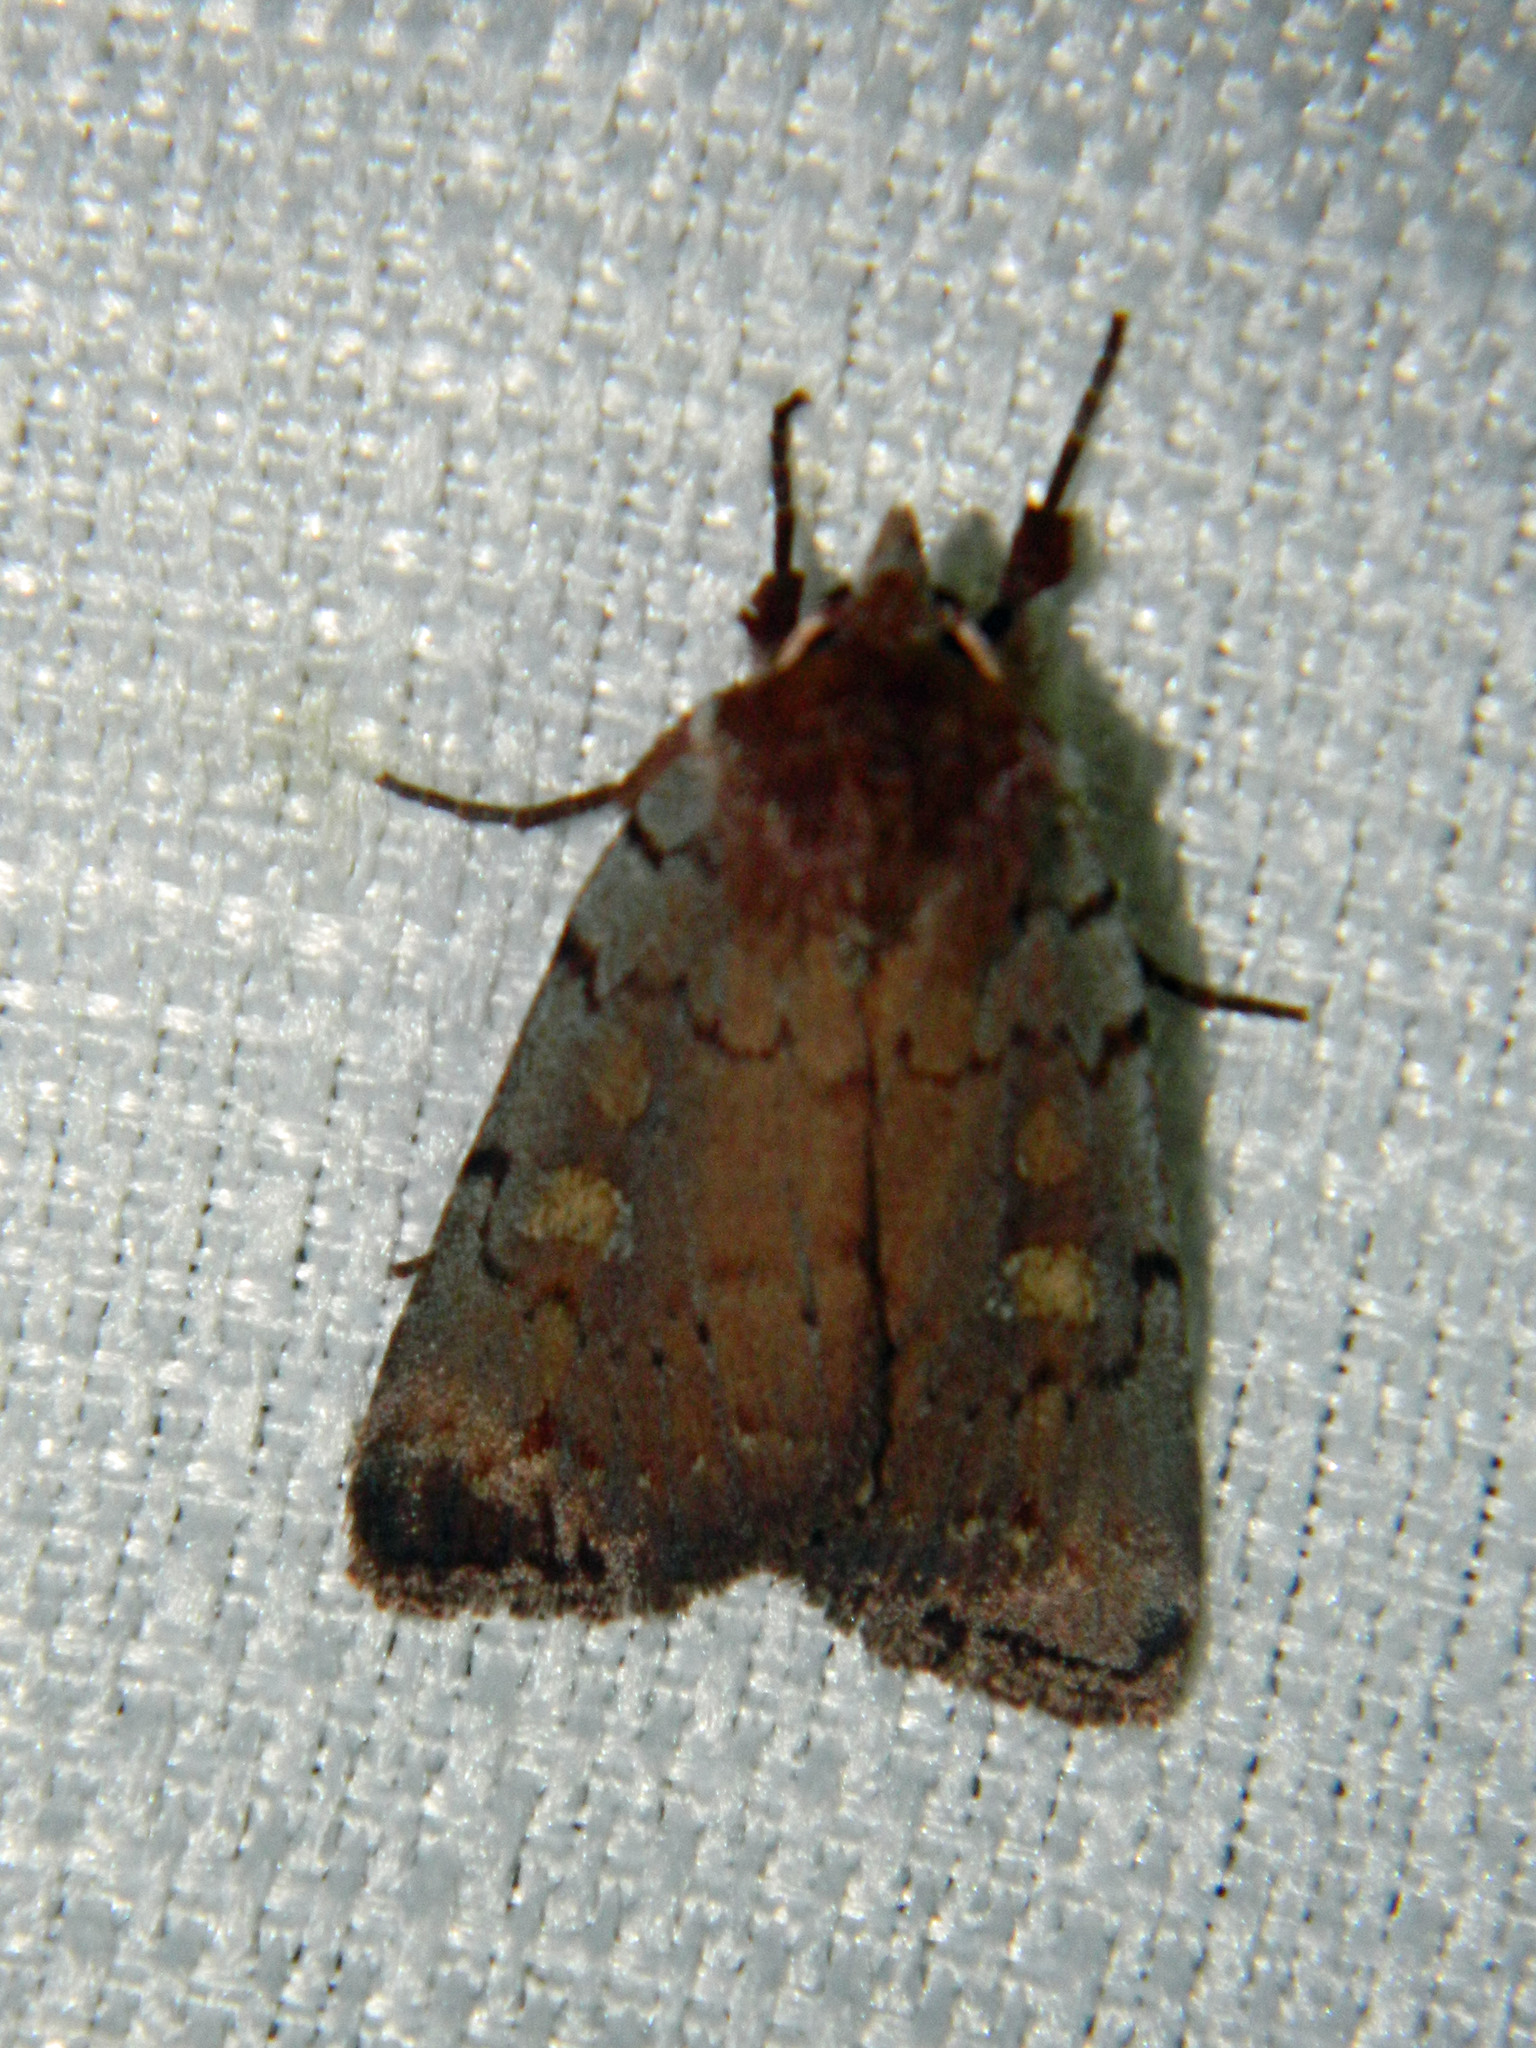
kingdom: Animalia
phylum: Arthropoda
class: Insecta
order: Lepidoptera
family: Noctuidae
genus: Xestia
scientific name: Xestia dilucida
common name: Dull reddish dart
